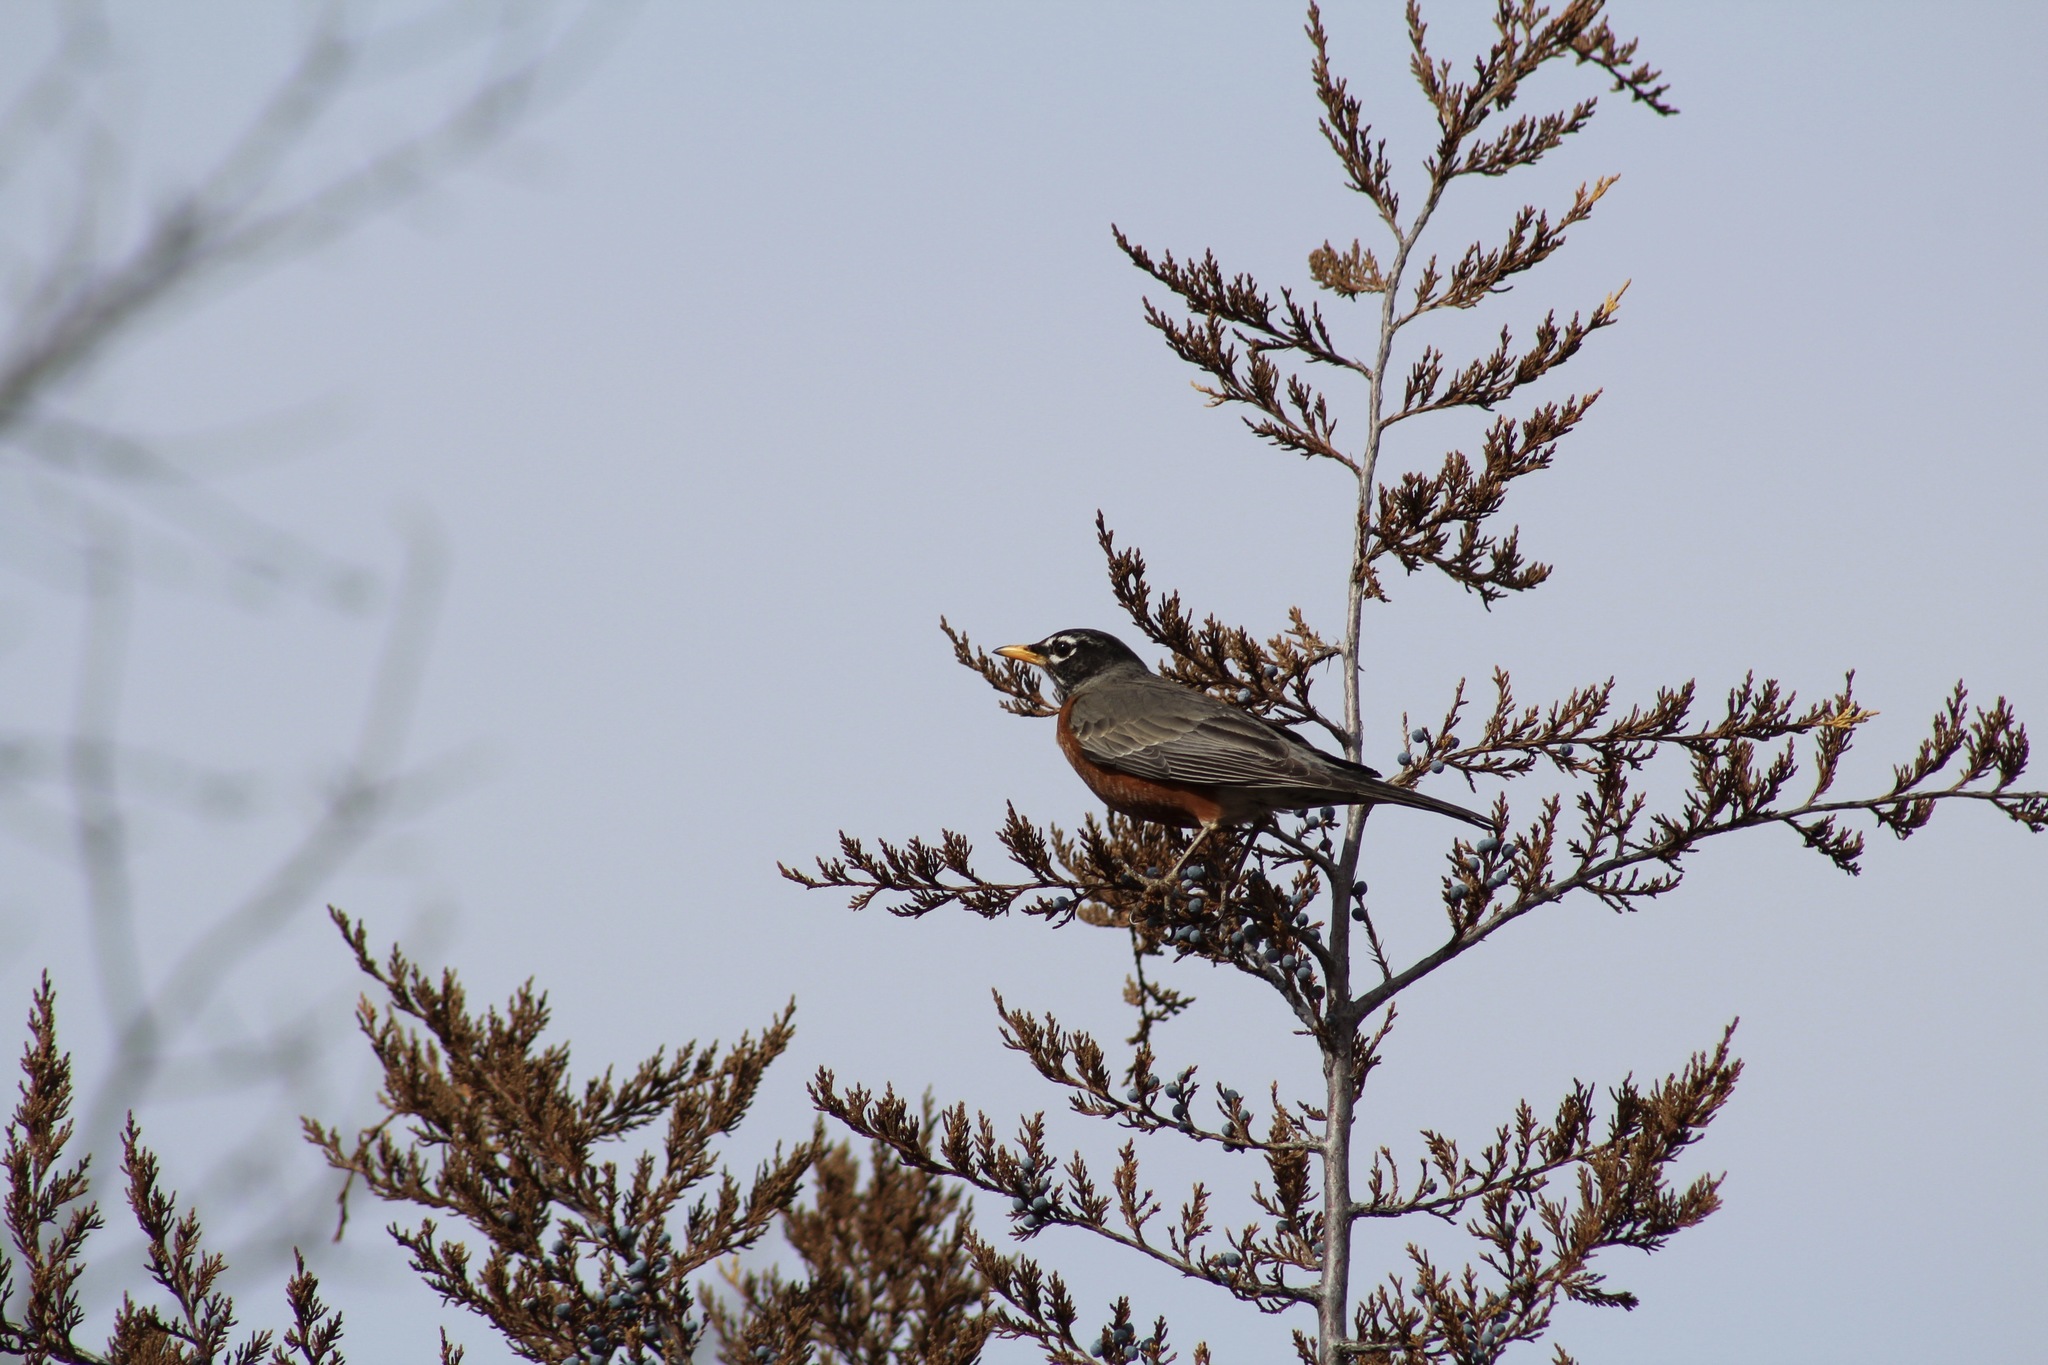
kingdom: Animalia
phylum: Chordata
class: Aves
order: Passeriformes
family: Turdidae
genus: Turdus
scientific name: Turdus migratorius
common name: American robin
